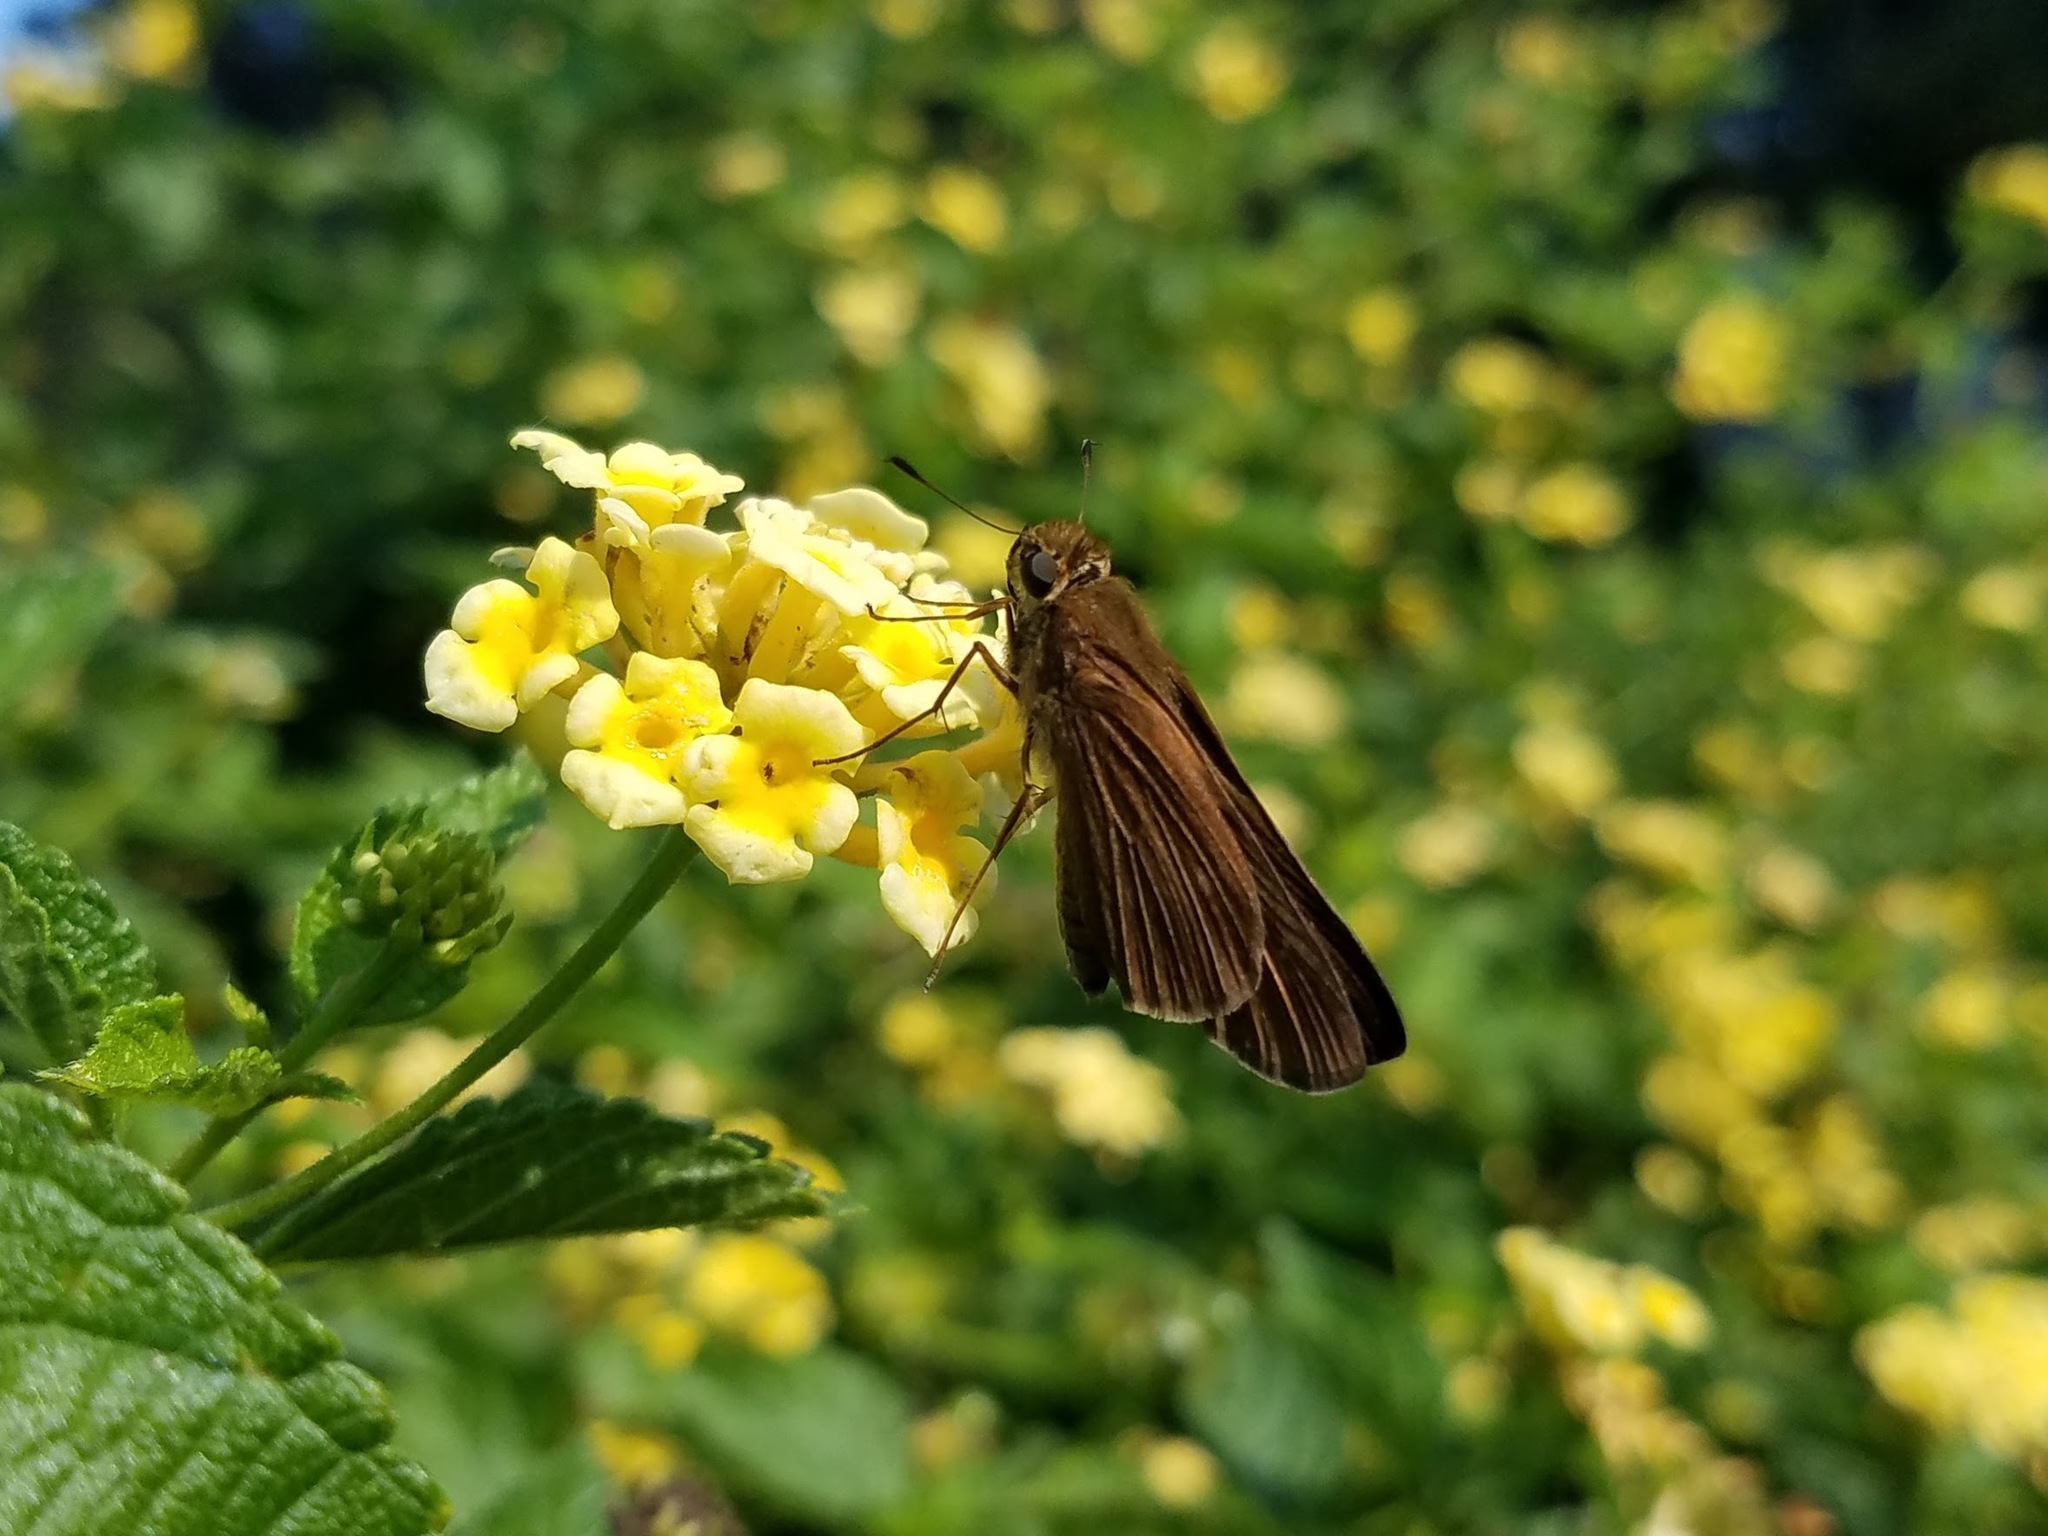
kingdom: Animalia
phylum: Arthropoda
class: Insecta
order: Lepidoptera
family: Hesperiidae
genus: Panoquina
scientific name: Panoquina ocola
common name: Ocola skipper
